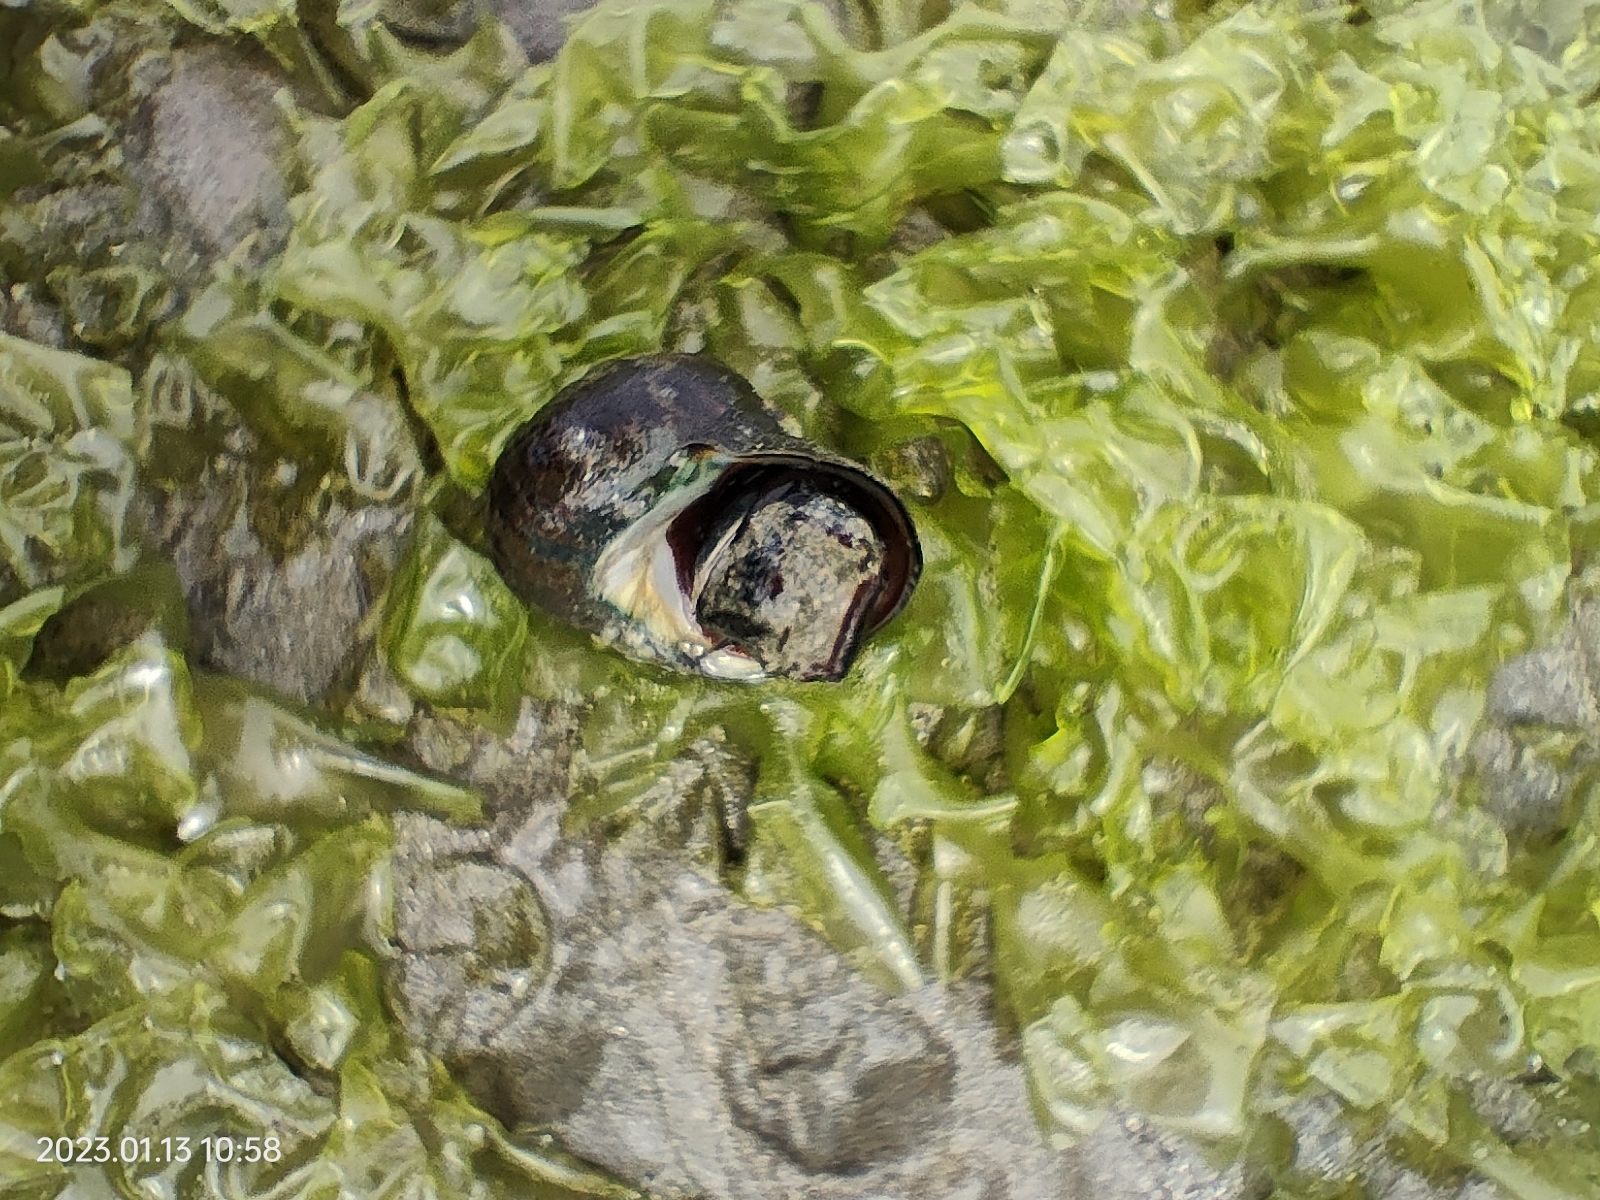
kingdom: Animalia
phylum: Mollusca
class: Gastropoda
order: Trochida
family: Turbinidae
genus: Lunella
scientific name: Lunella smaragda
